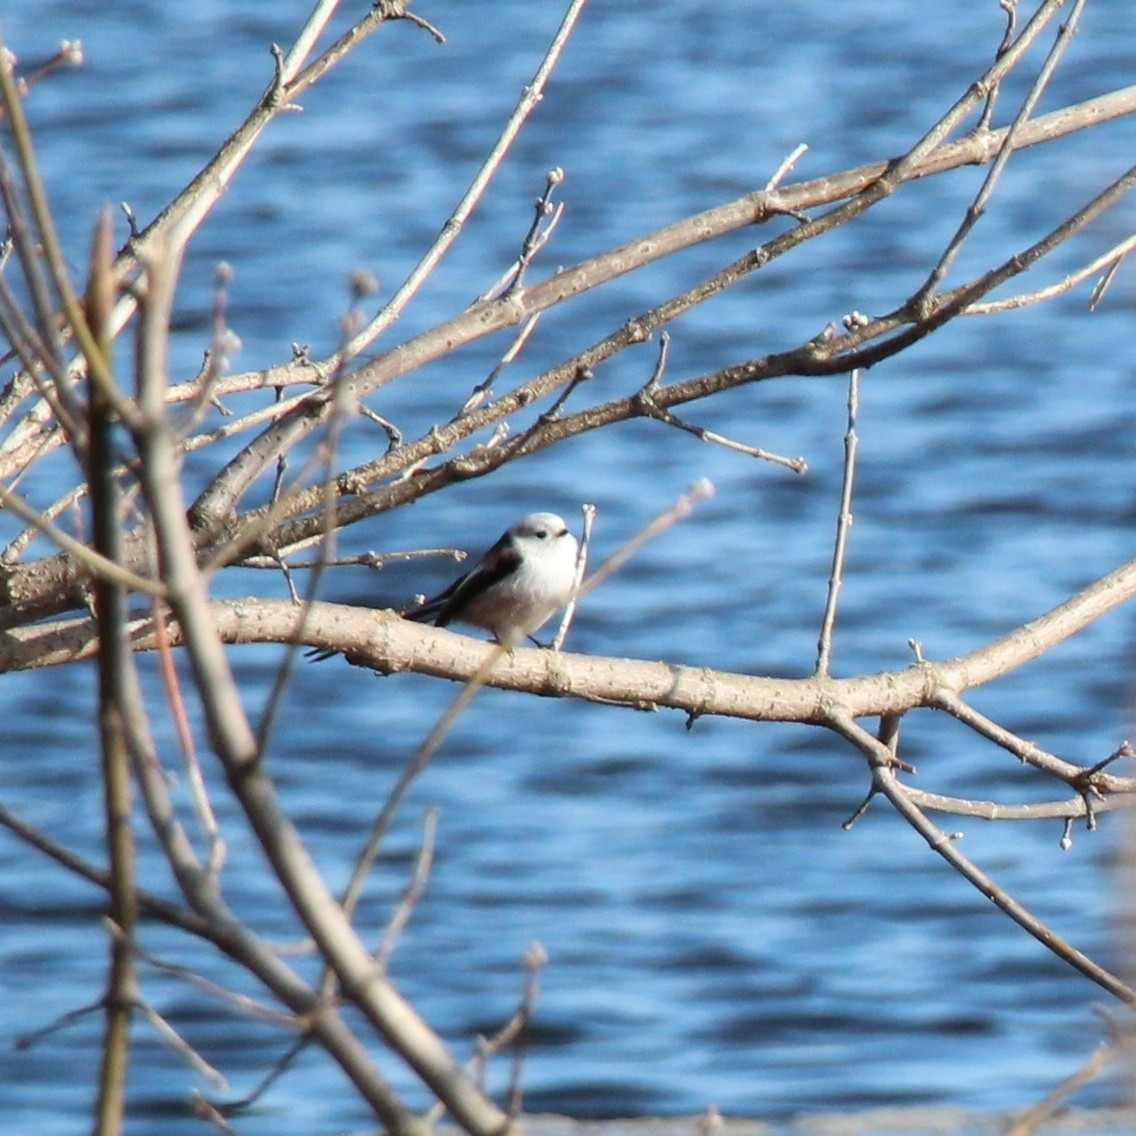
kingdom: Animalia
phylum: Chordata
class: Aves
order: Passeriformes
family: Aegithalidae
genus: Aegithalos
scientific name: Aegithalos caudatus
